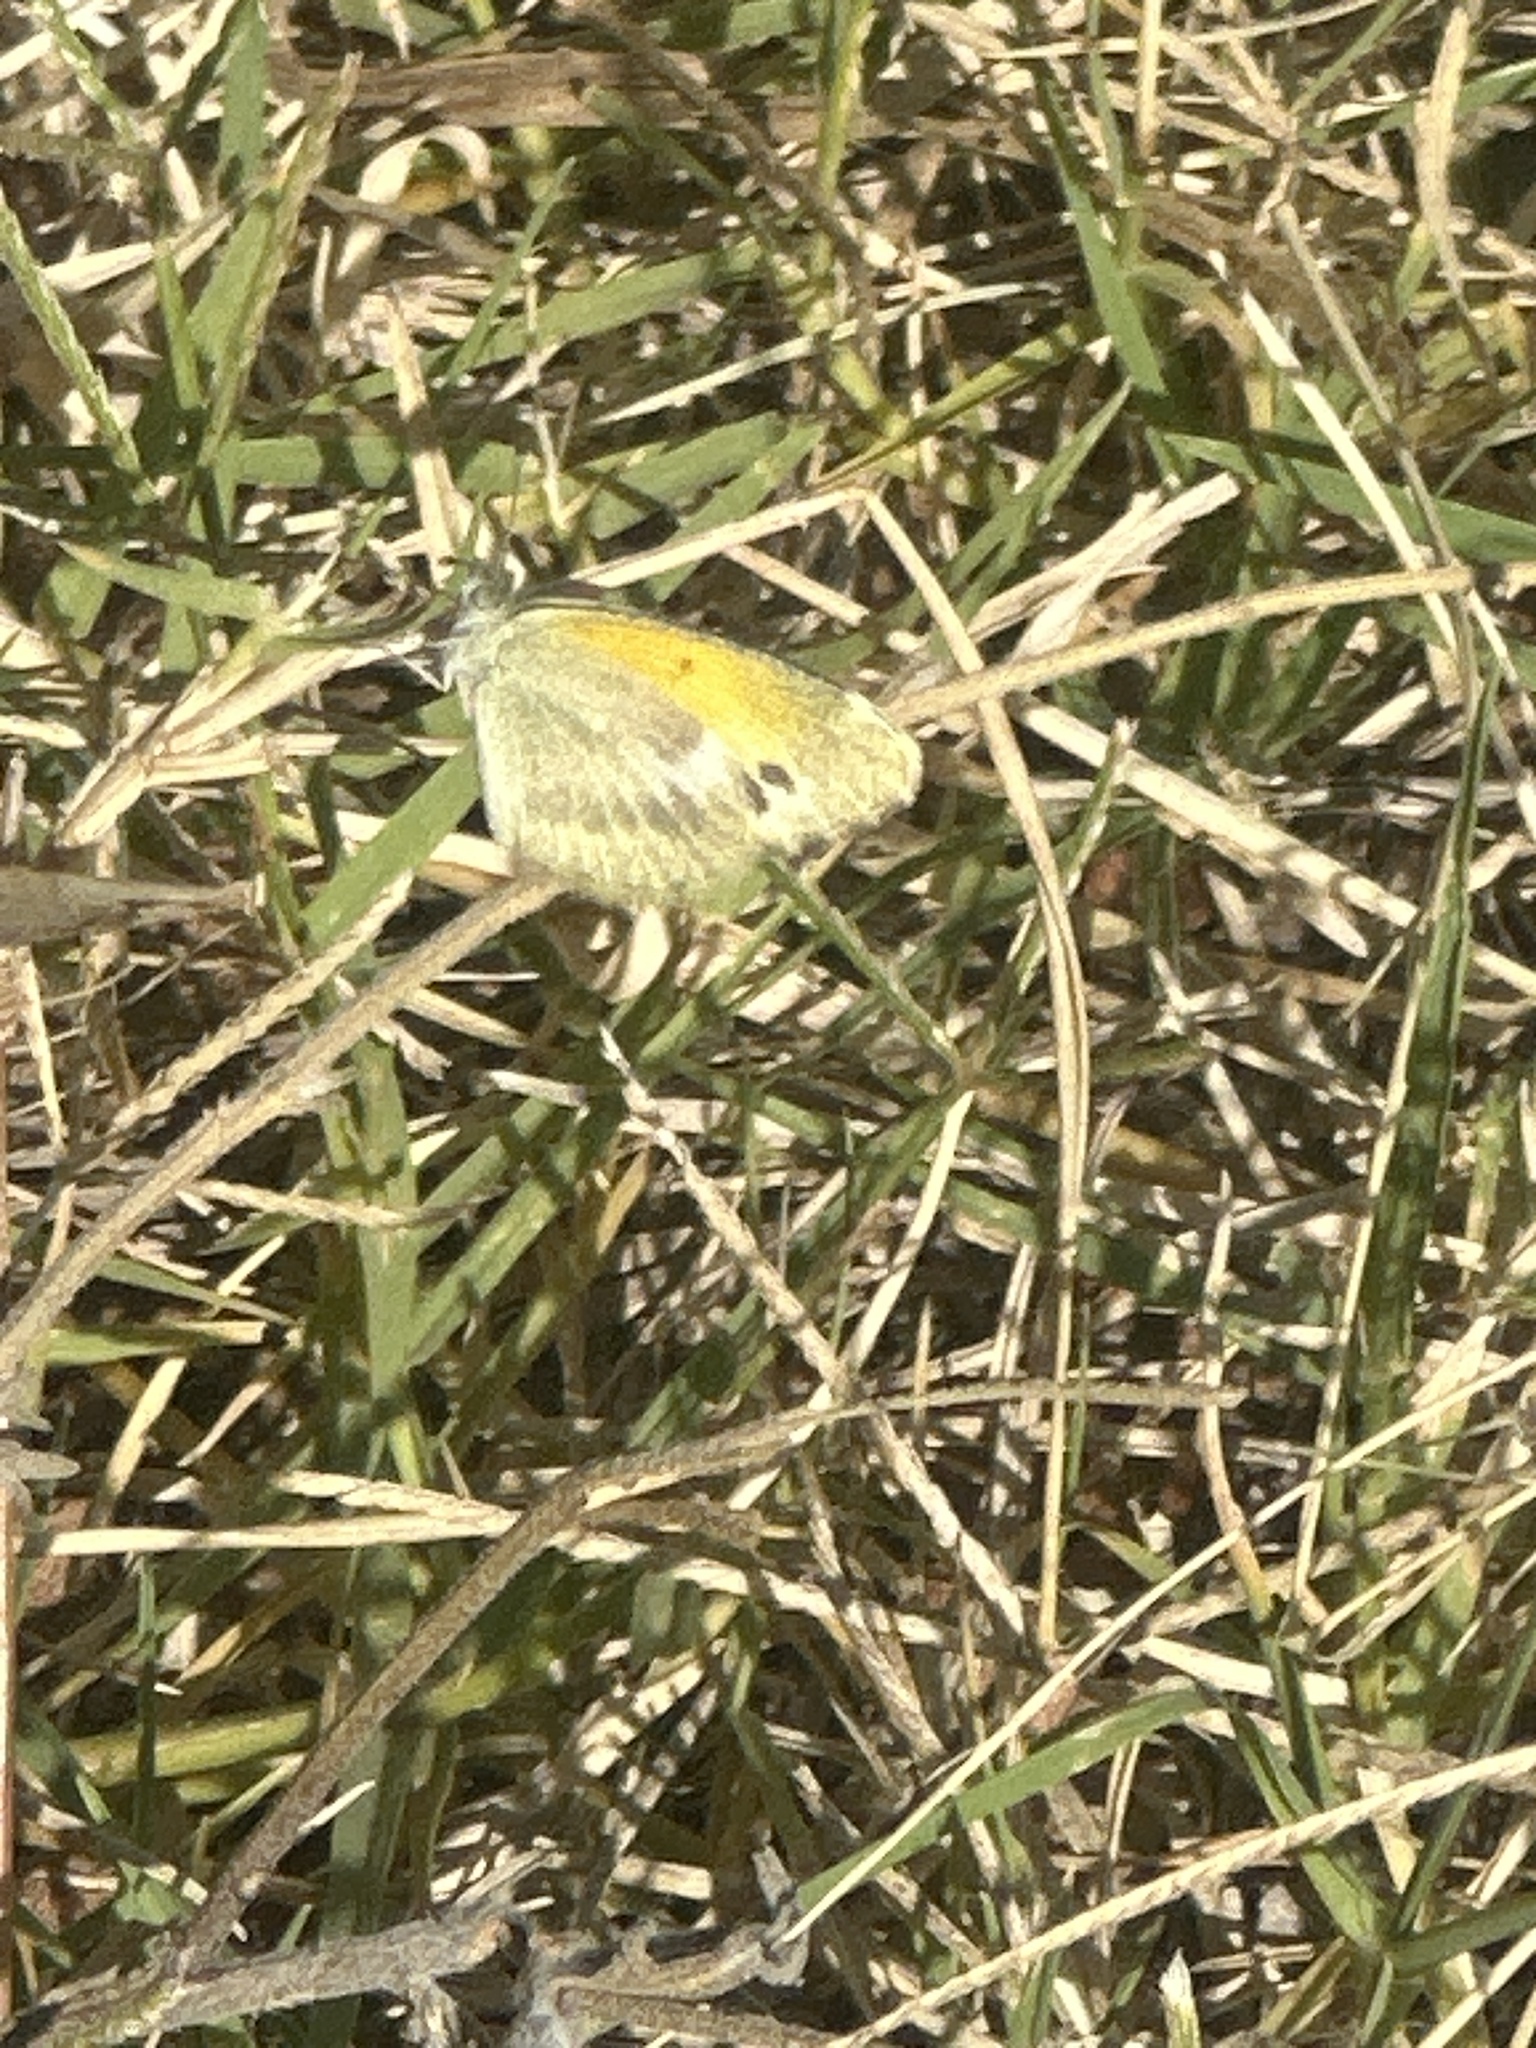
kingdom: Animalia
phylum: Arthropoda
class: Insecta
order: Lepidoptera
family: Pieridae
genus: Nathalis
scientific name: Nathalis iole
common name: Dainty sulphur
